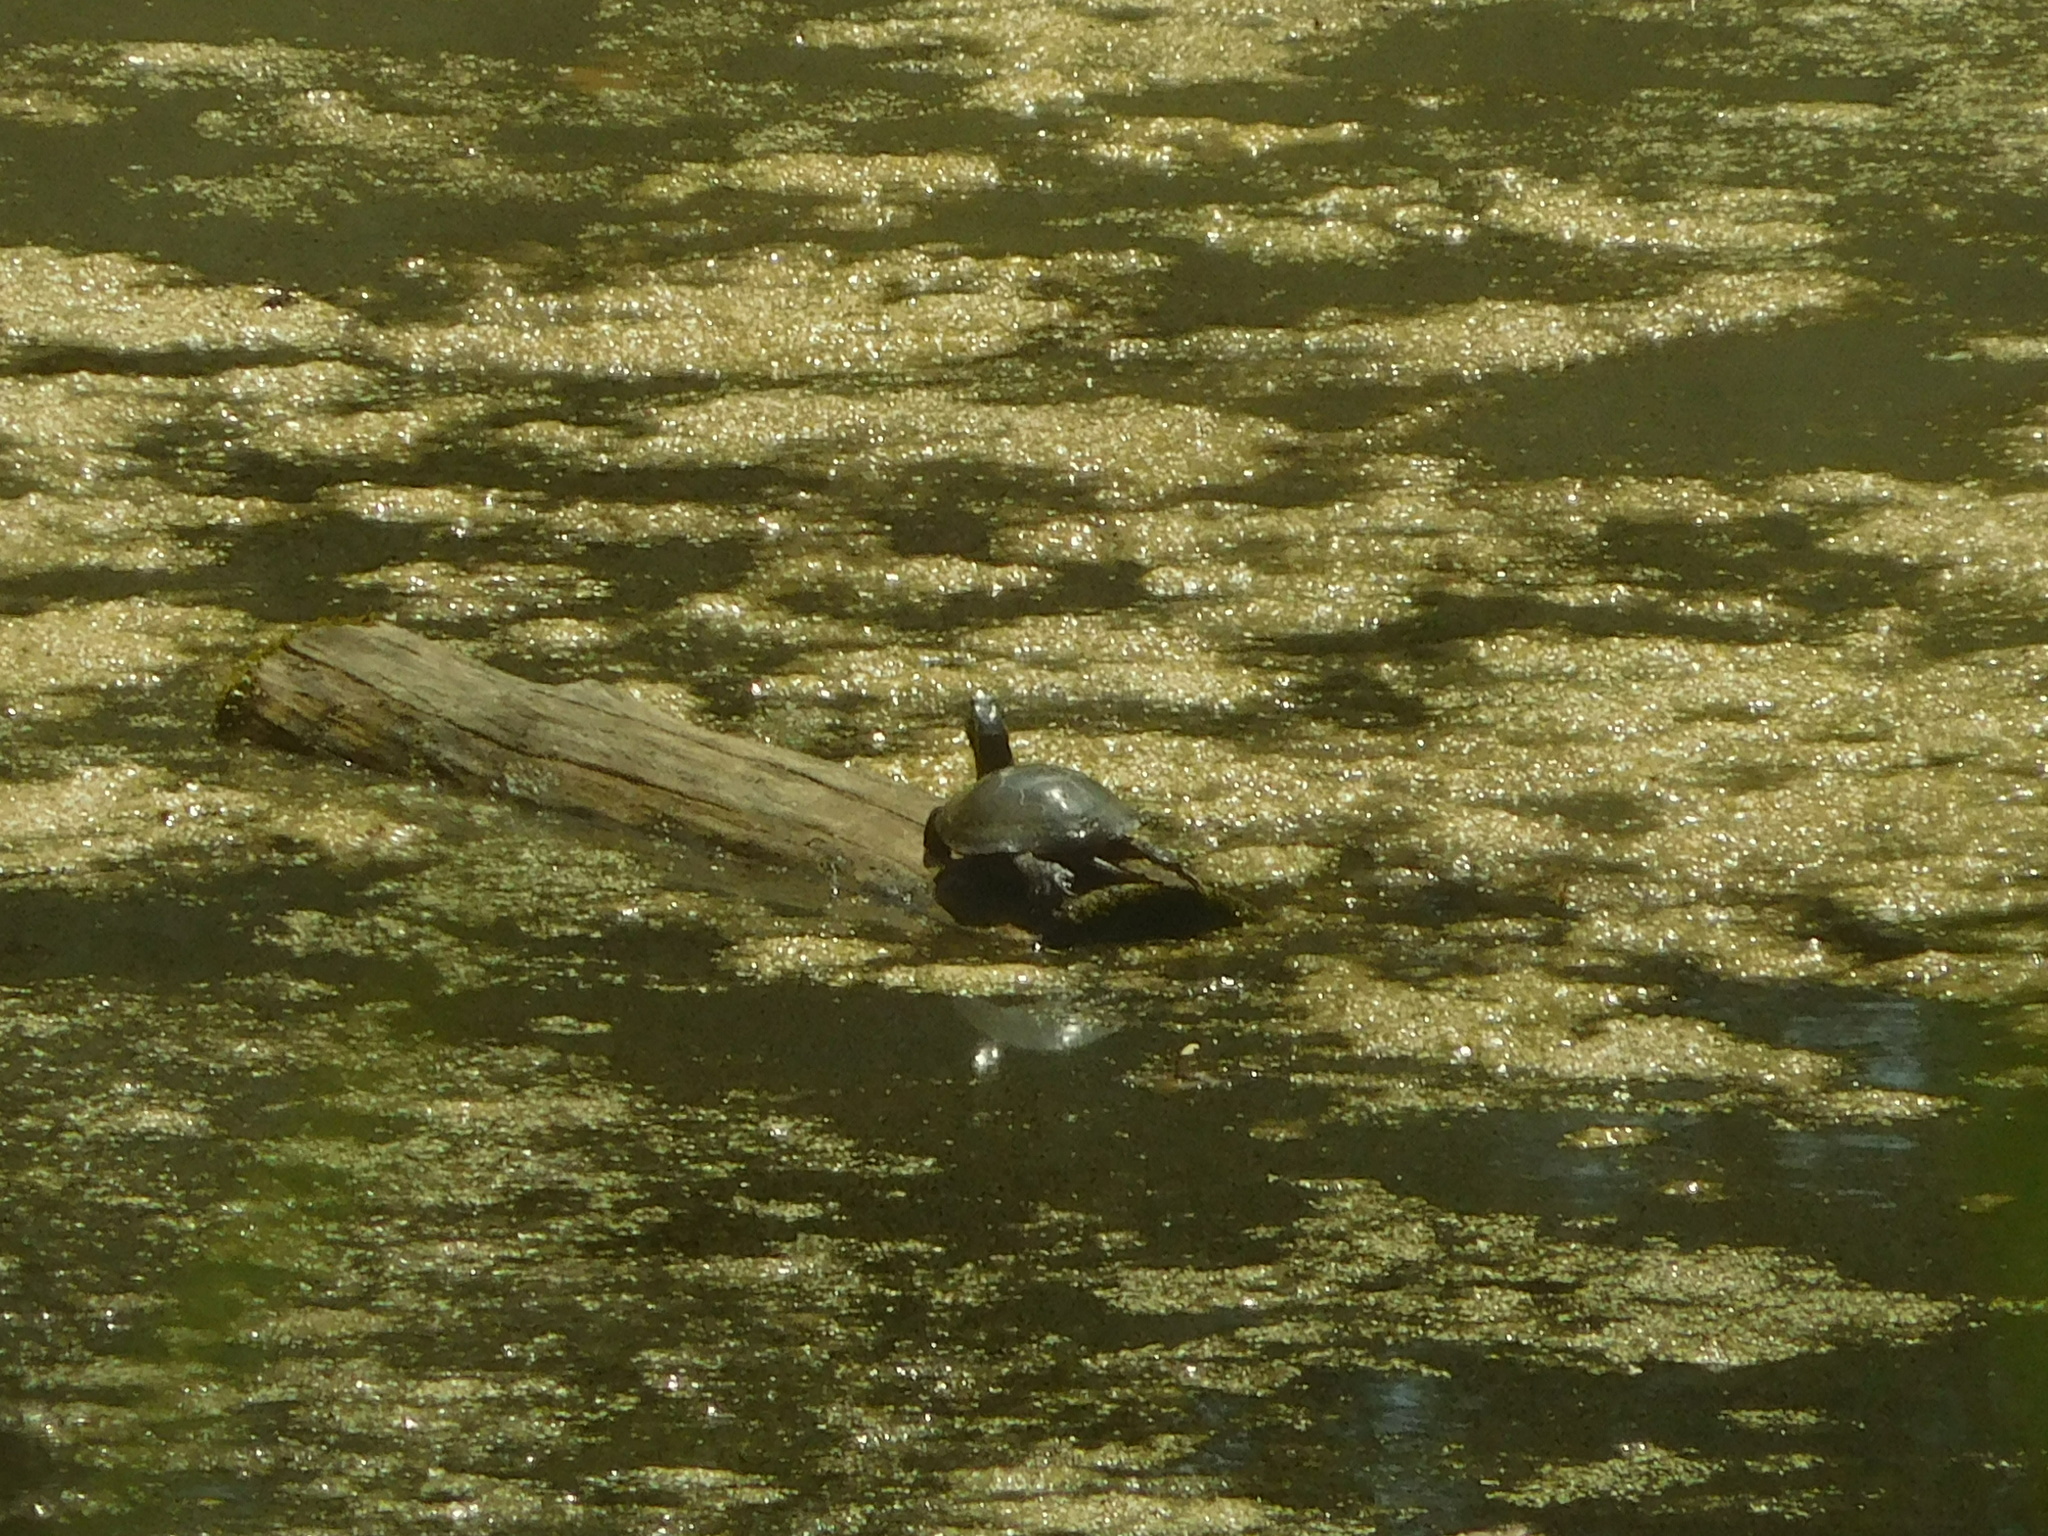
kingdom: Animalia
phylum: Chordata
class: Testudines
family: Emydidae
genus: Chrysemys
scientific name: Chrysemys picta
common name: Painted turtle
